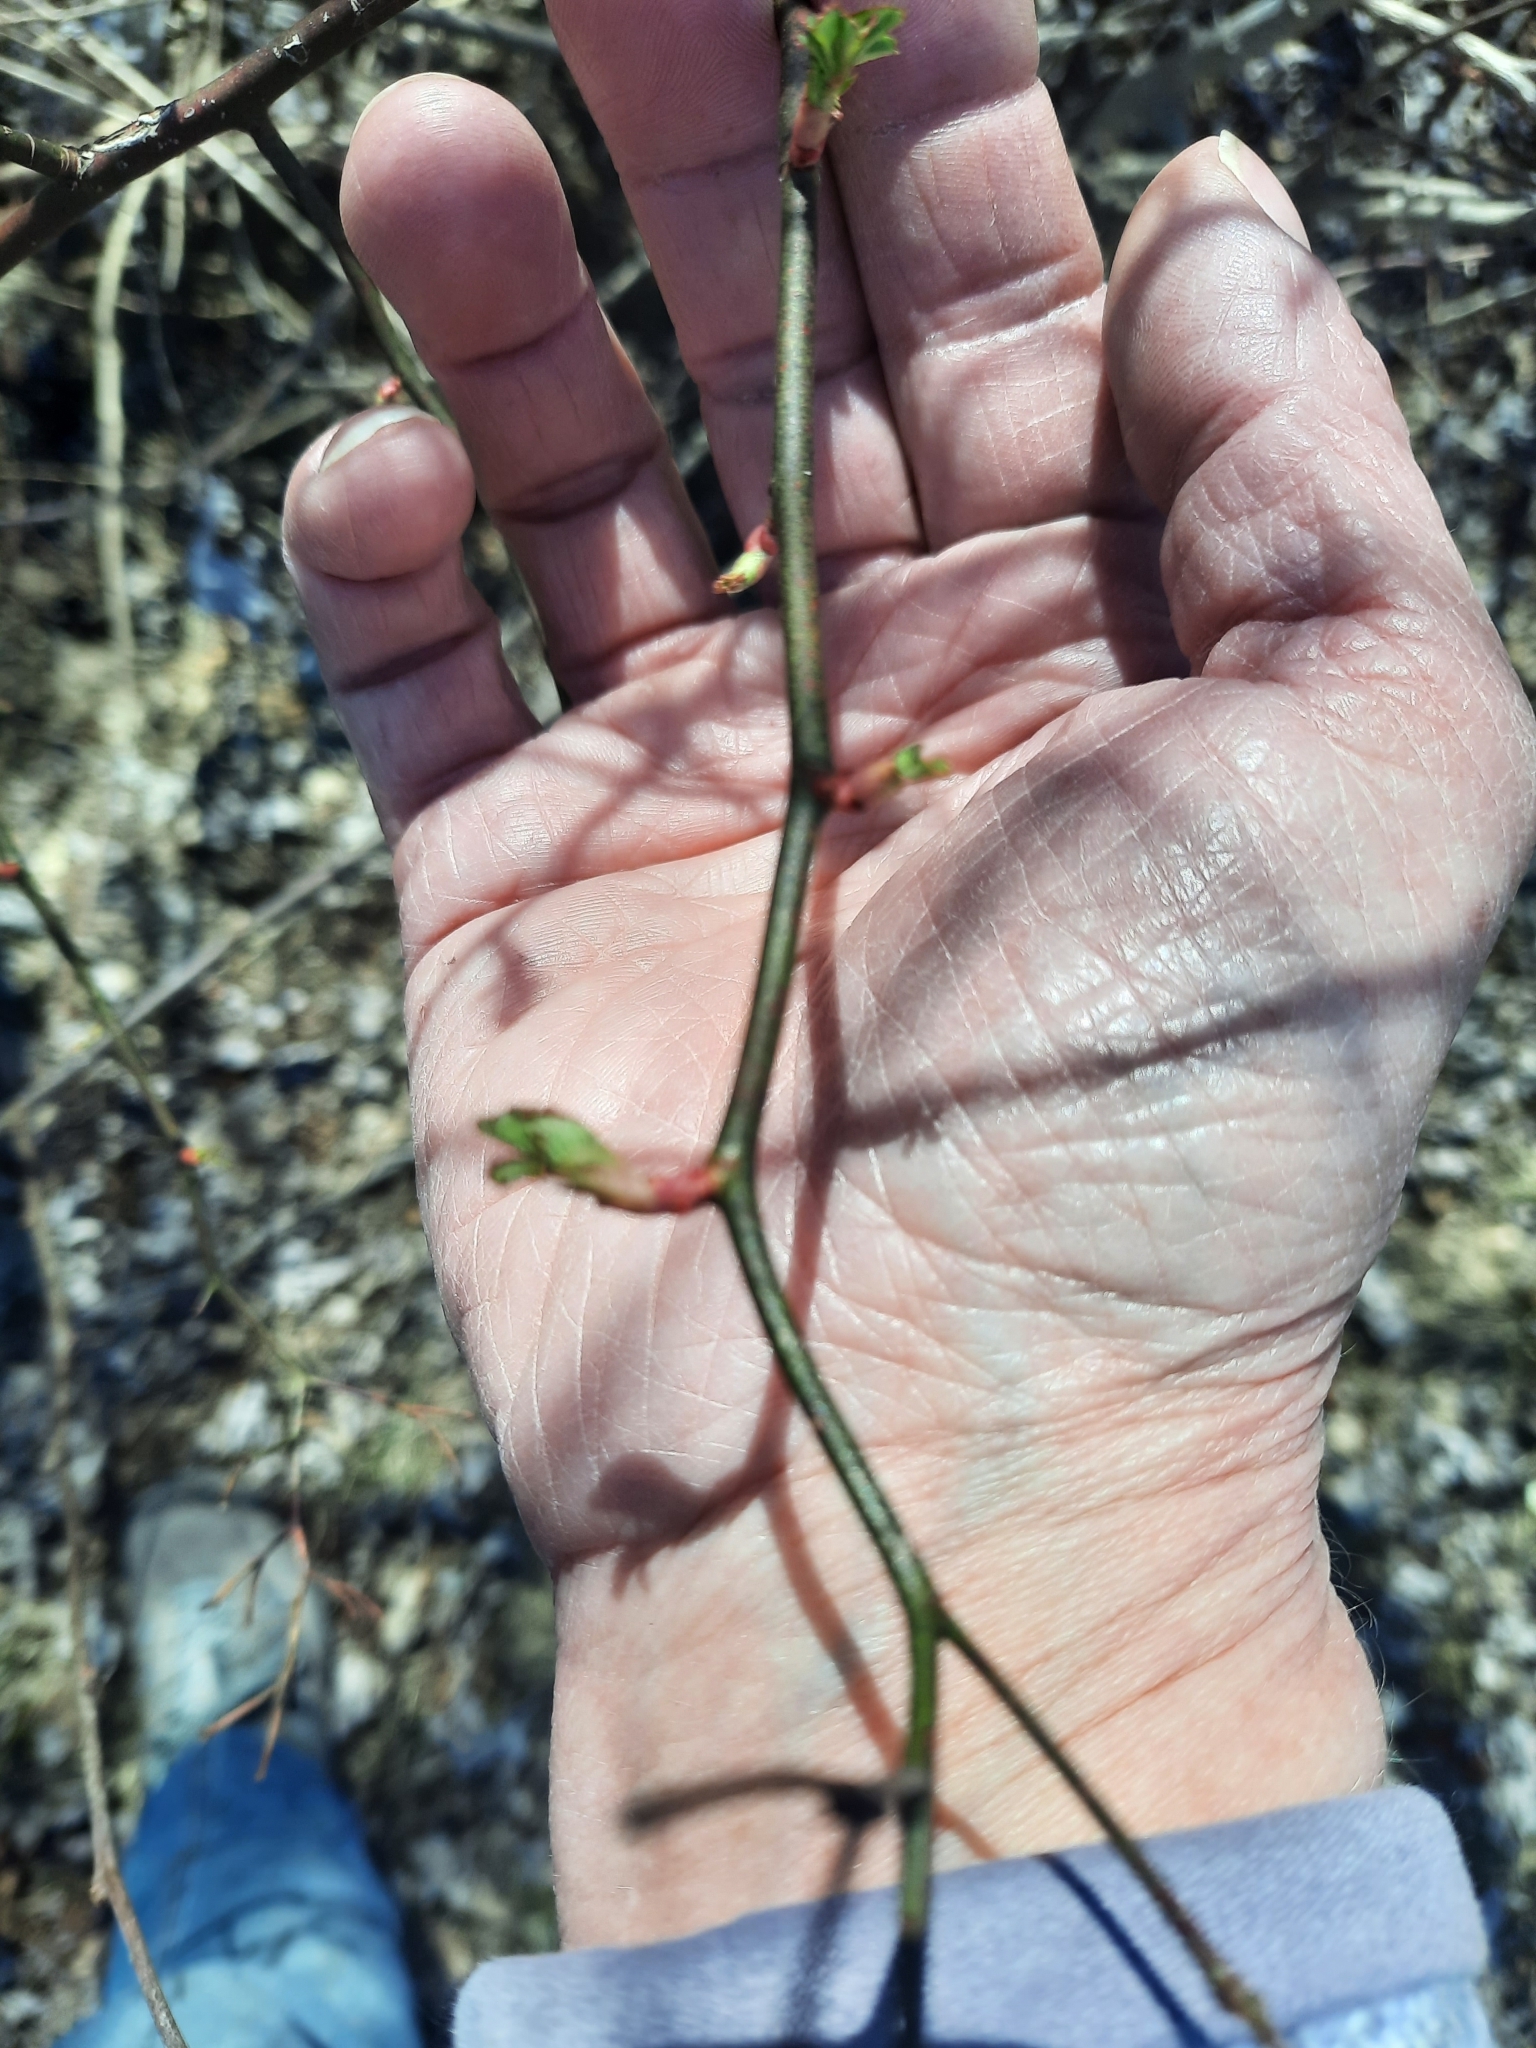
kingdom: Plantae
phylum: Tracheophyta
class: Magnoliopsida
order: Rosales
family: Rosaceae
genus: Rosa
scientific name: Rosa multiflora
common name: Multiflora rose
